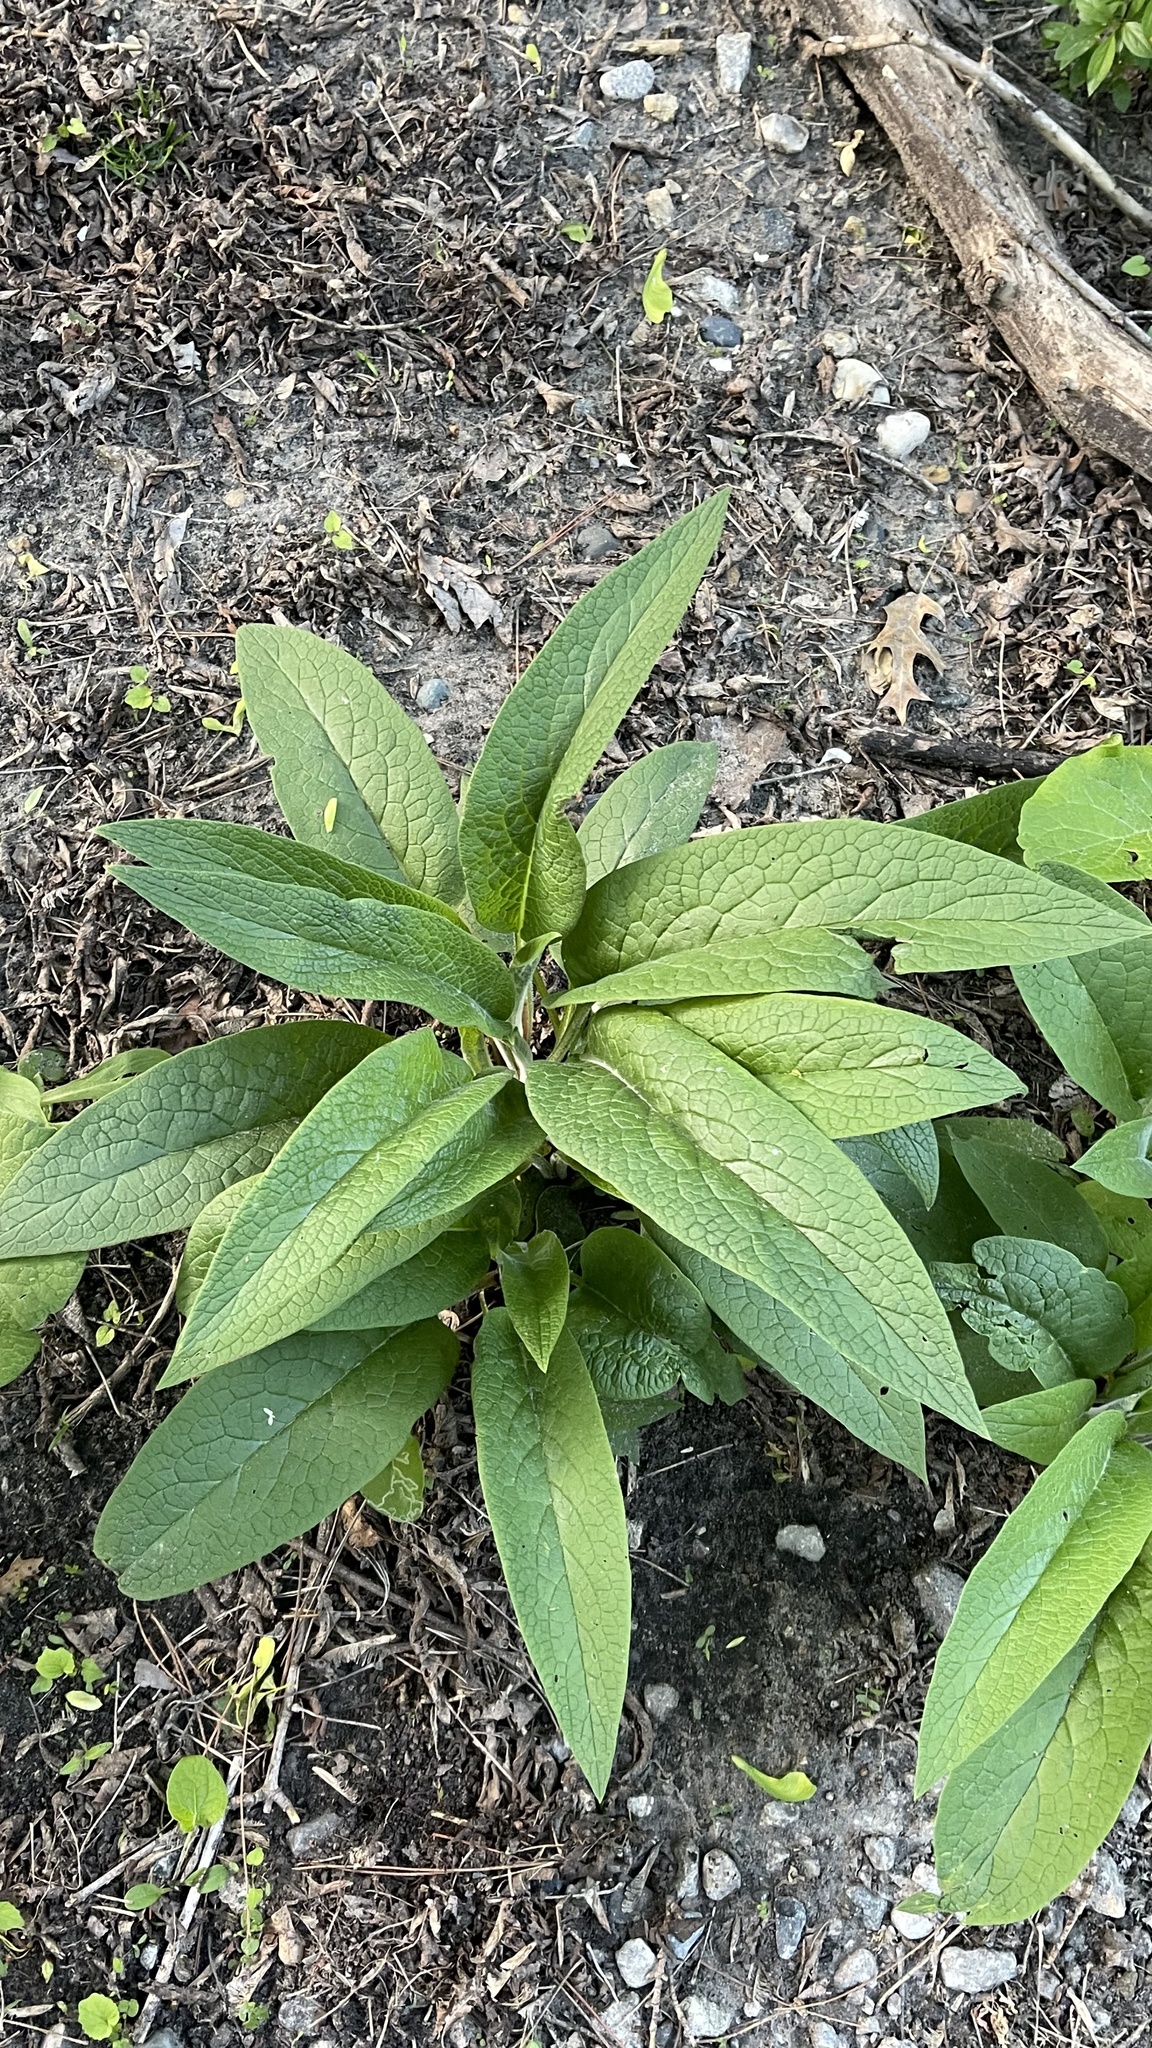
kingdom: Plantae
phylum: Tracheophyta
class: Magnoliopsida
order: Boraginales
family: Boraginaceae
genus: Symphytum
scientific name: Symphytum officinale
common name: Common comfrey
